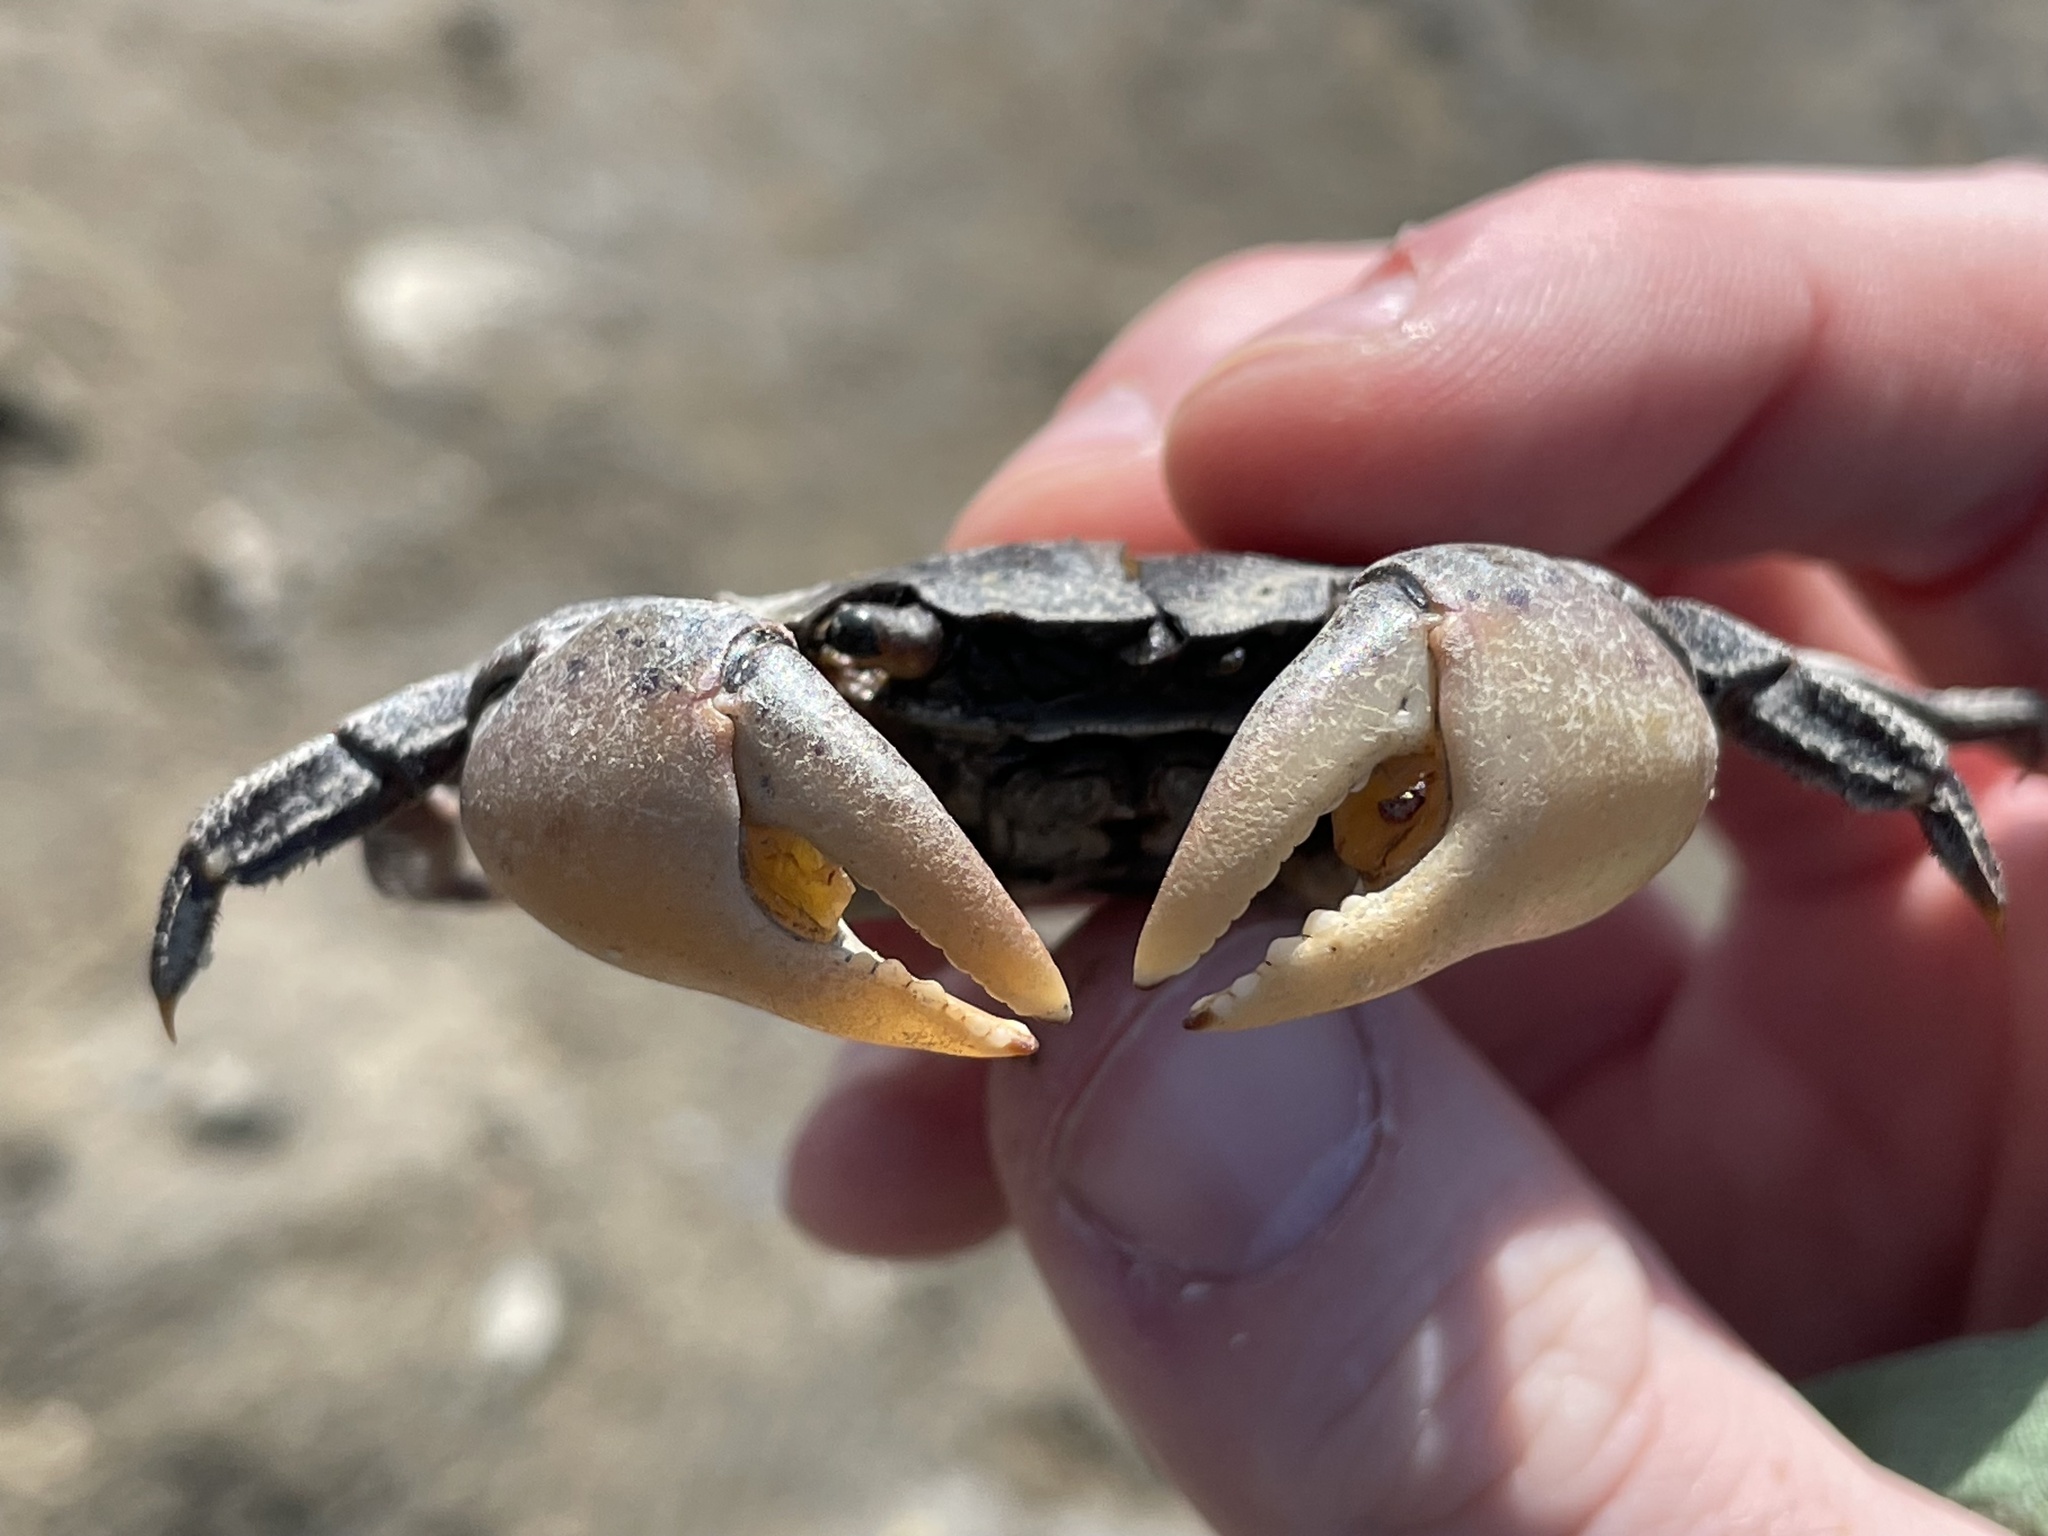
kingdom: Animalia
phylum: Arthropoda
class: Malacostraca
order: Decapoda
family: Varunidae
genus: Hemigrapsus
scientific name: Hemigrapsus sanguineus
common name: Asian shore crab
